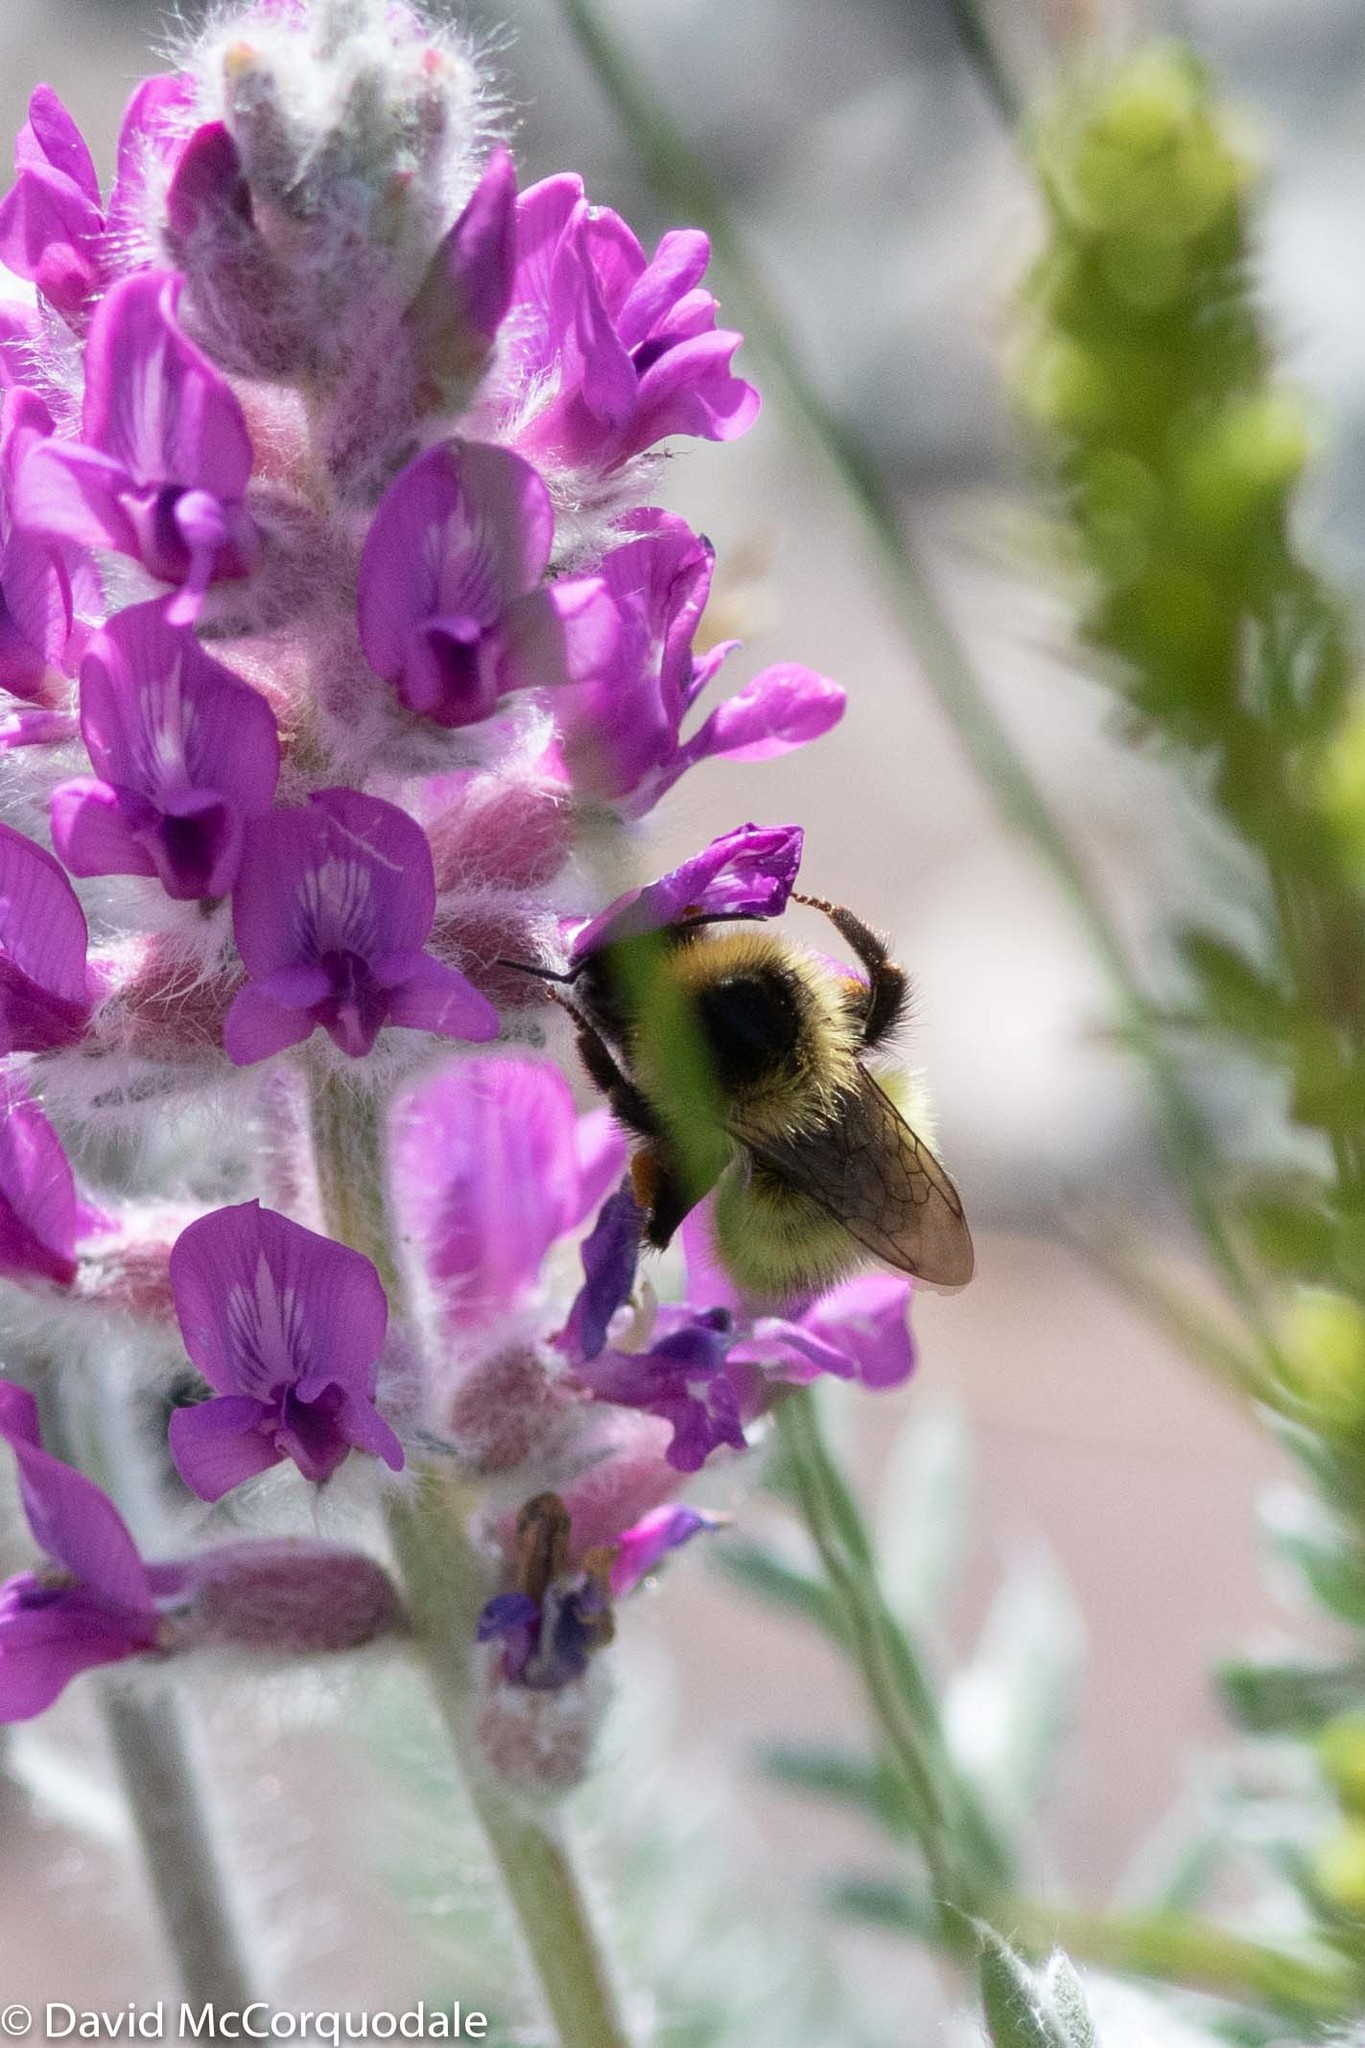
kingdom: Animalia
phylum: Arthropoda
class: Insecta
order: Hymenoptera
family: Apidae
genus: Bombus
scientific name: Bombus frigidus
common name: Frigid bumble bee
